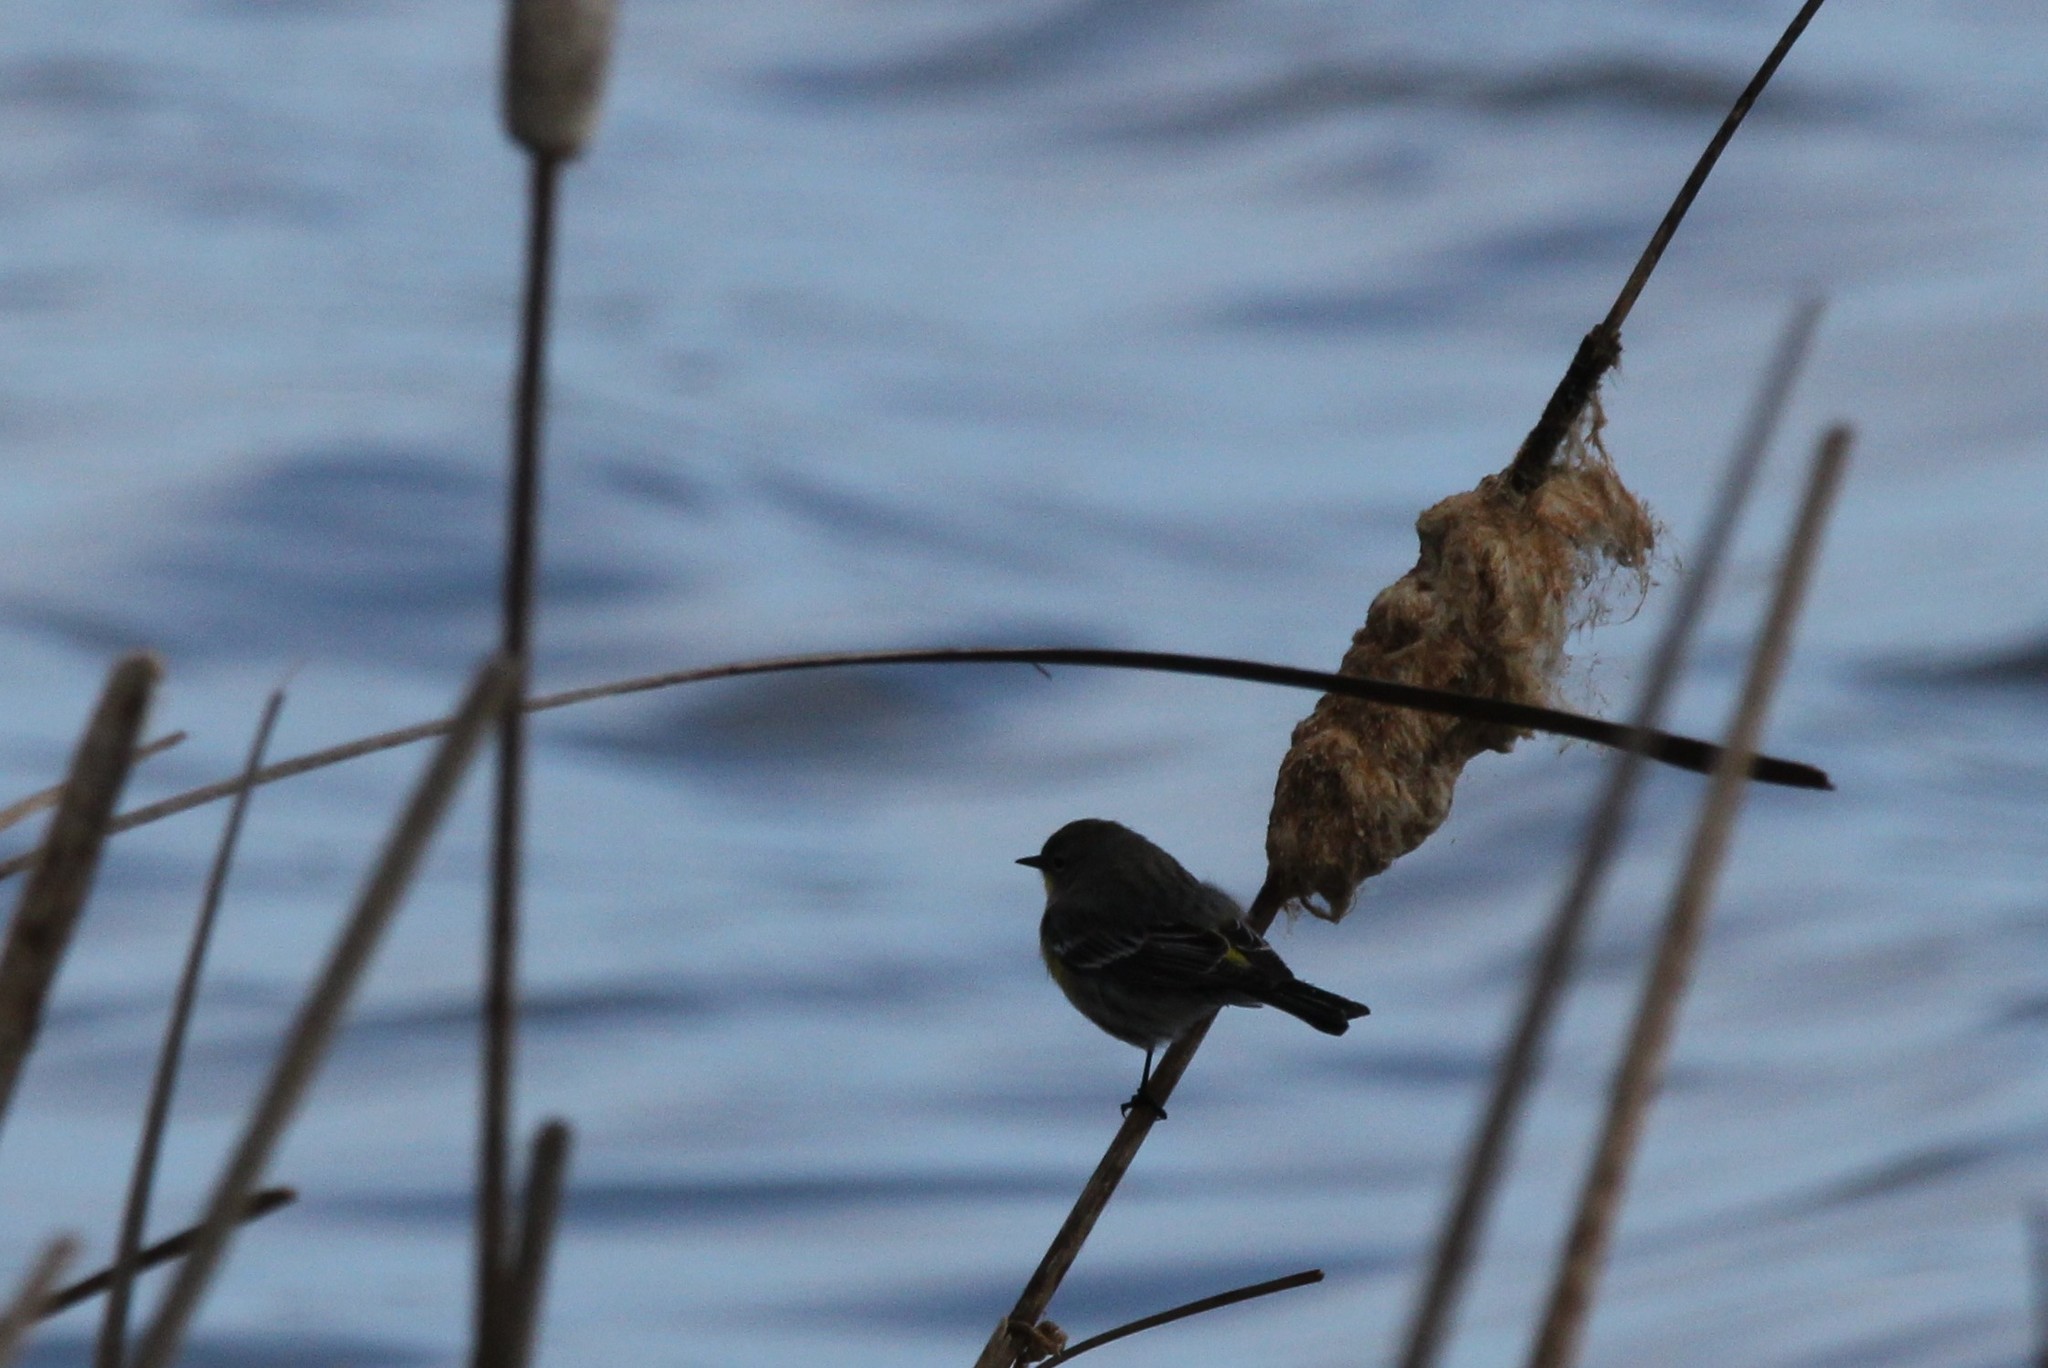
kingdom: Animalia
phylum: Chordata
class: Aves
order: Passeriformes
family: Parulidae
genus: Setophaga
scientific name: Setophaga coronata
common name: Myrtle warbler
